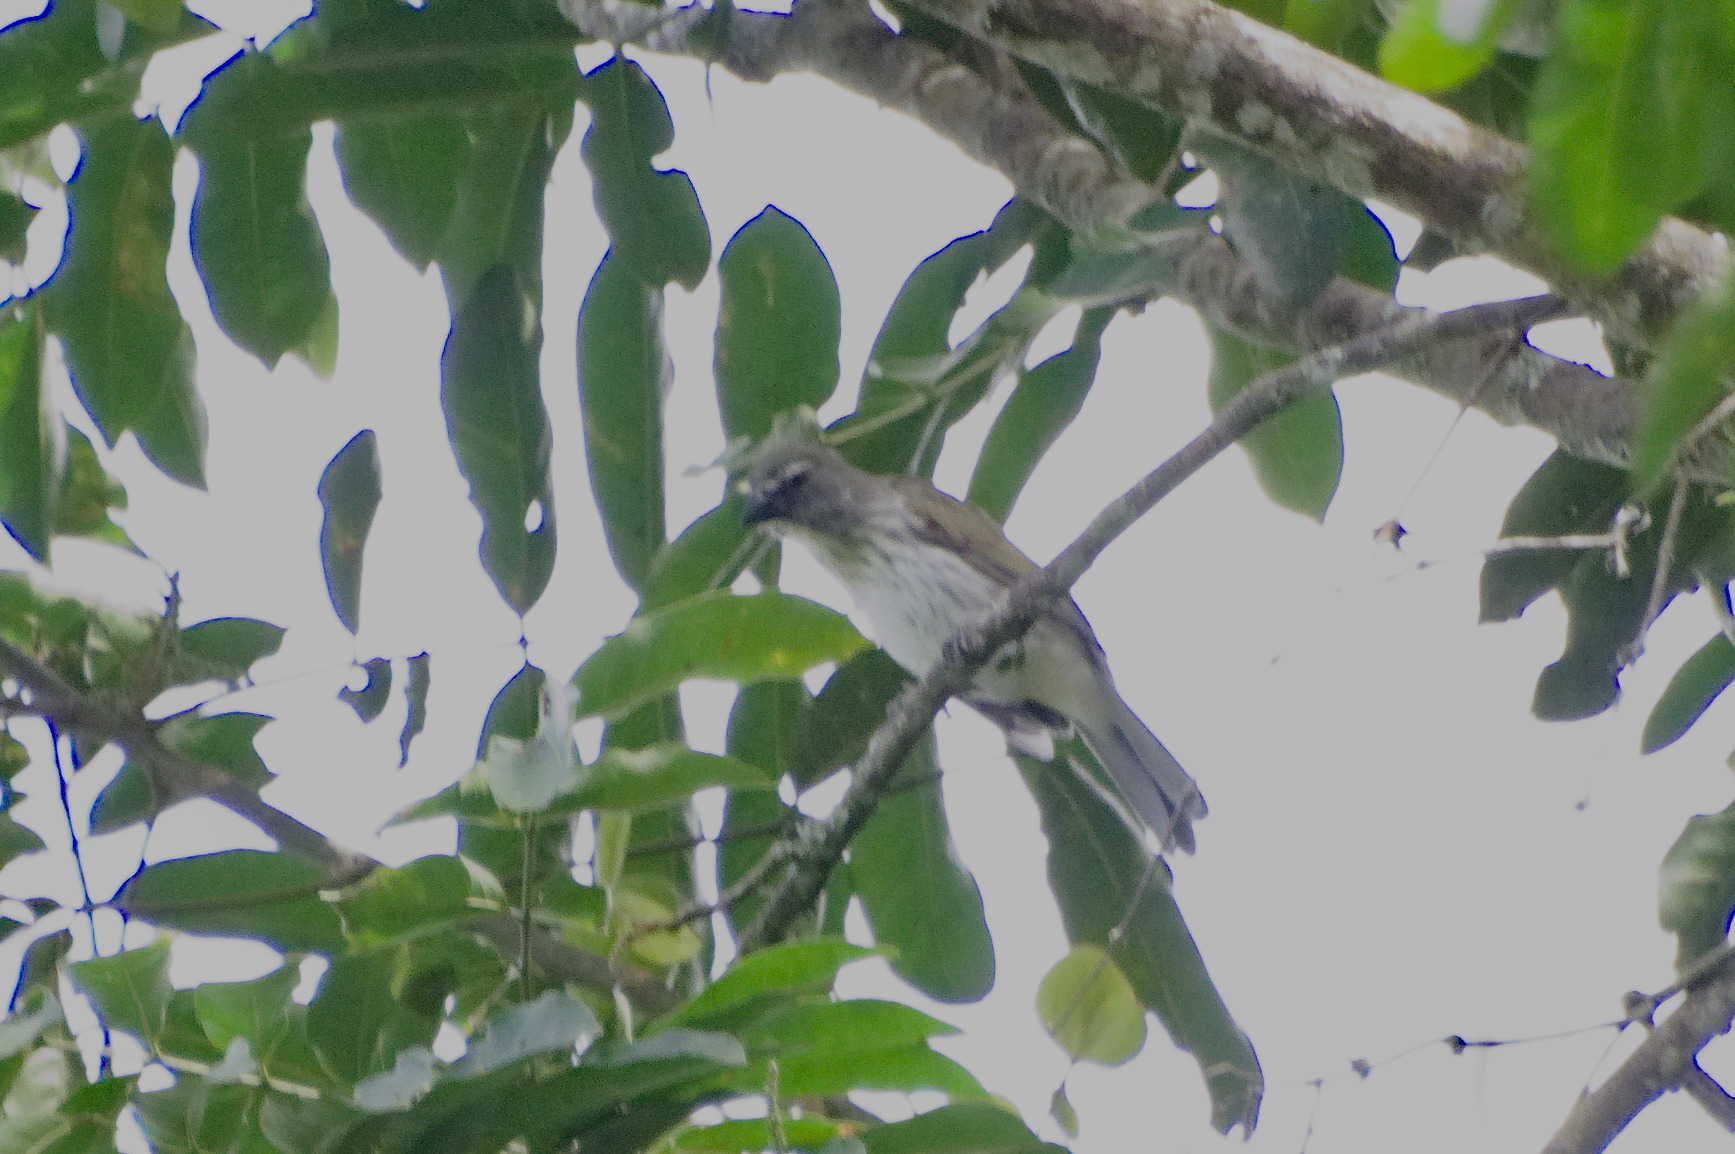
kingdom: Animalia
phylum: Chordata
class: Aves
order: Passeriformes
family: Thraupidae
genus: Saltator
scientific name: Saltator striatipectus
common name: Streaked saltator
